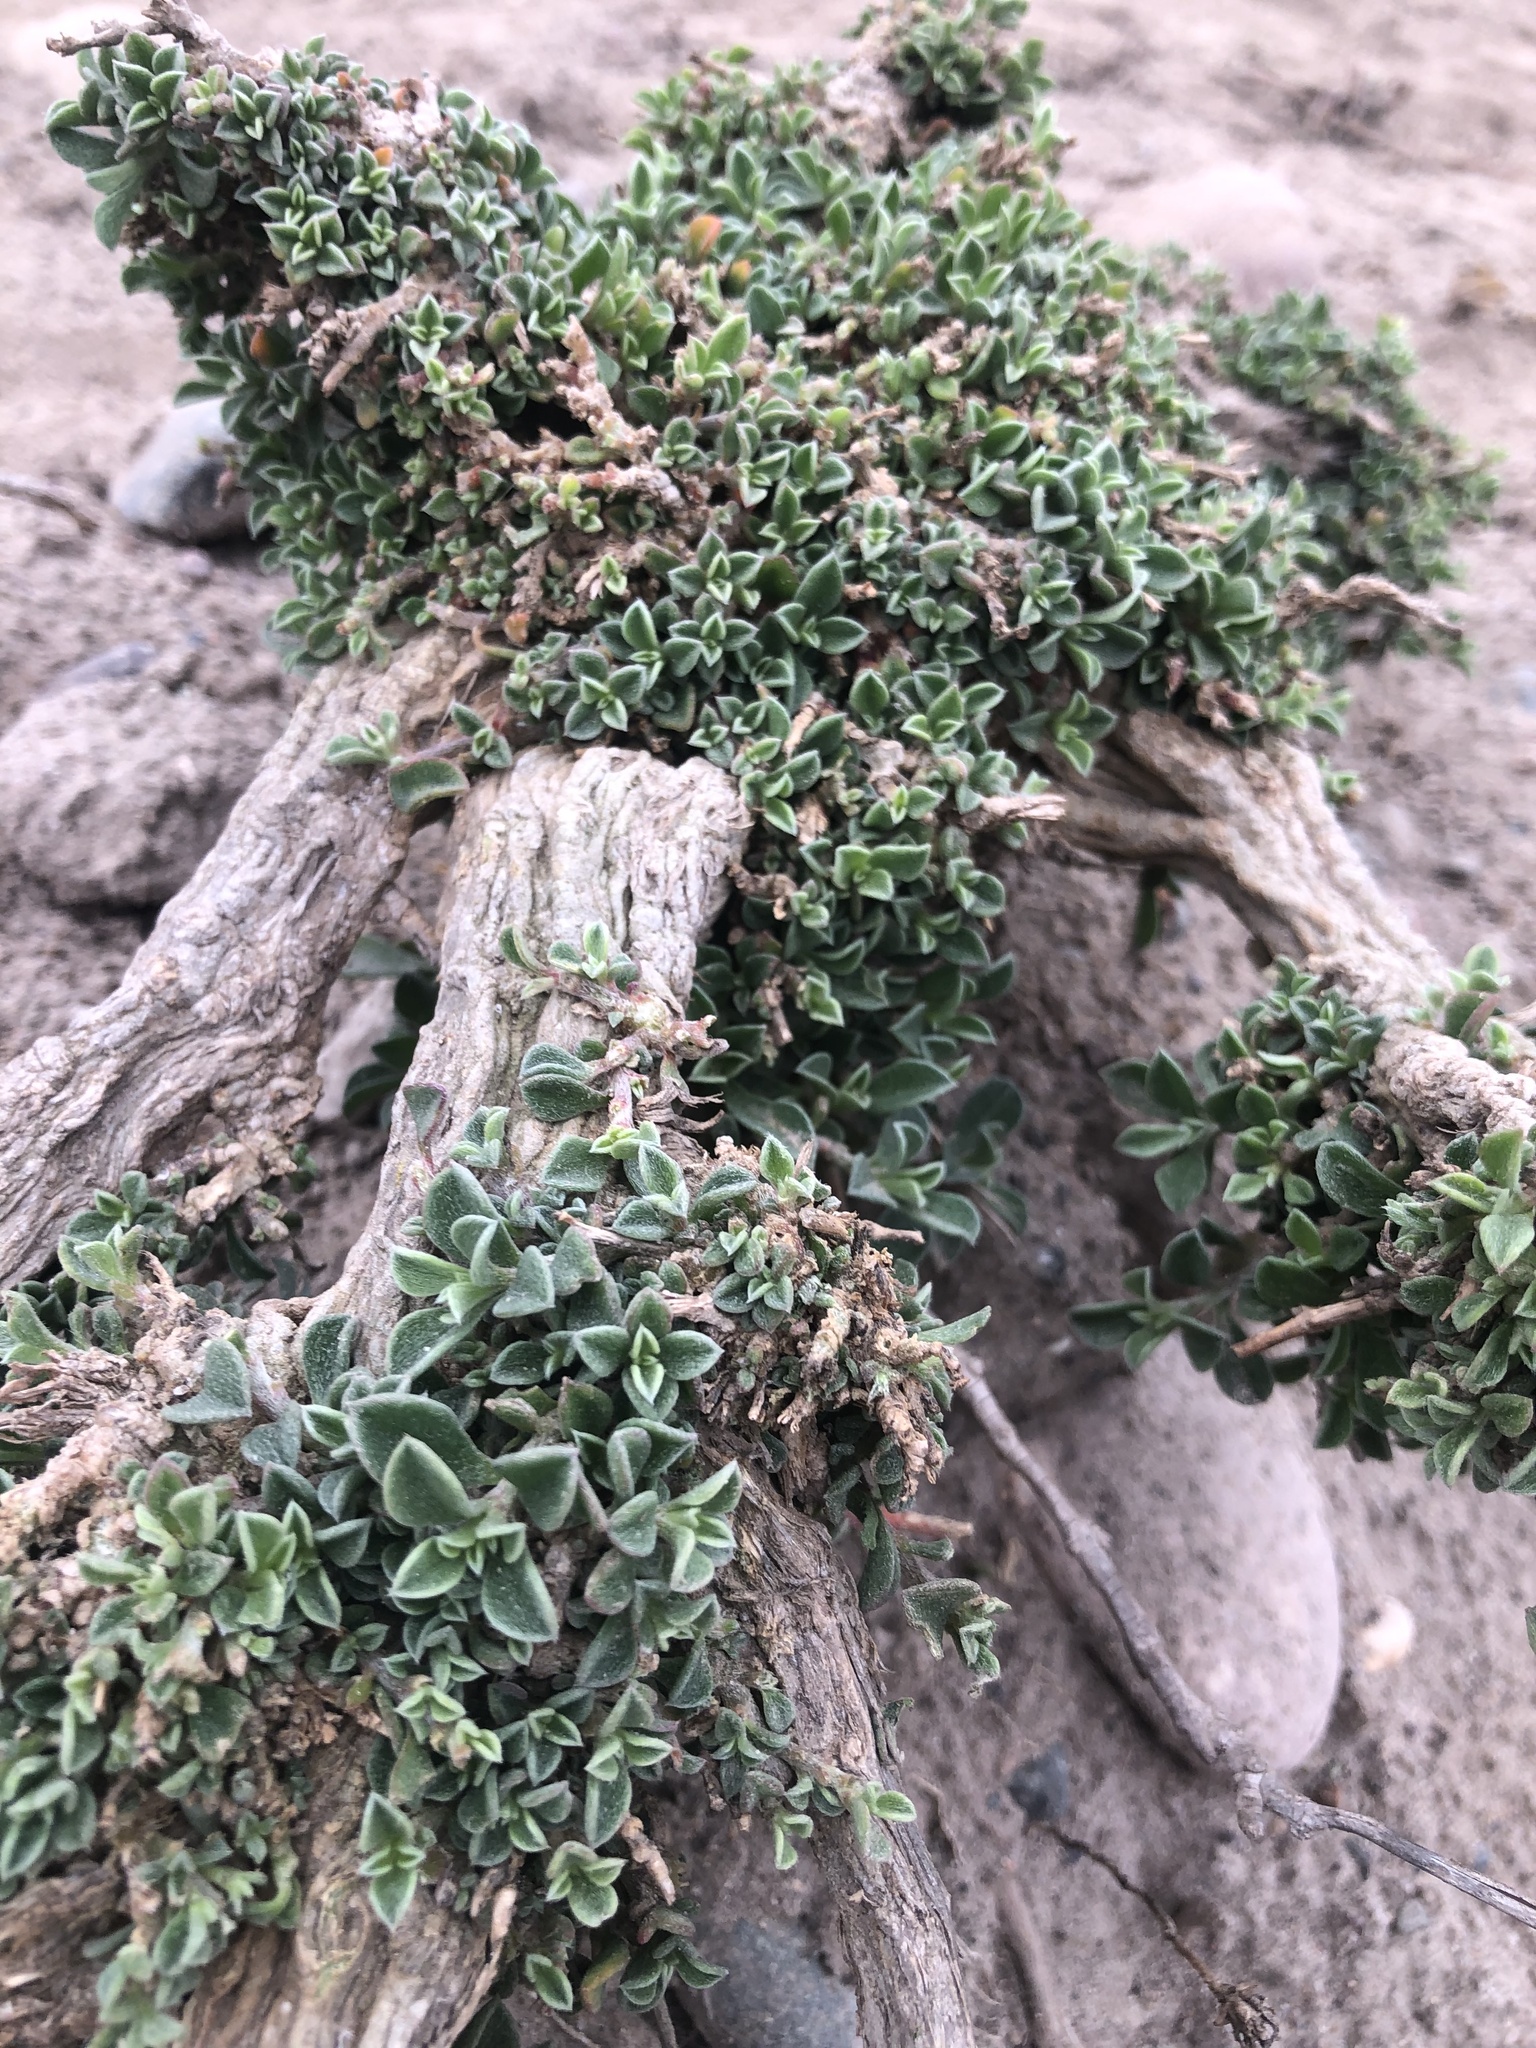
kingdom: Plantae
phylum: Tracheophyta
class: Magnoliopsida
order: Caryophyllales
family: Aizoaceae
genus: Aizoon
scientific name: Aizoon pubescens
